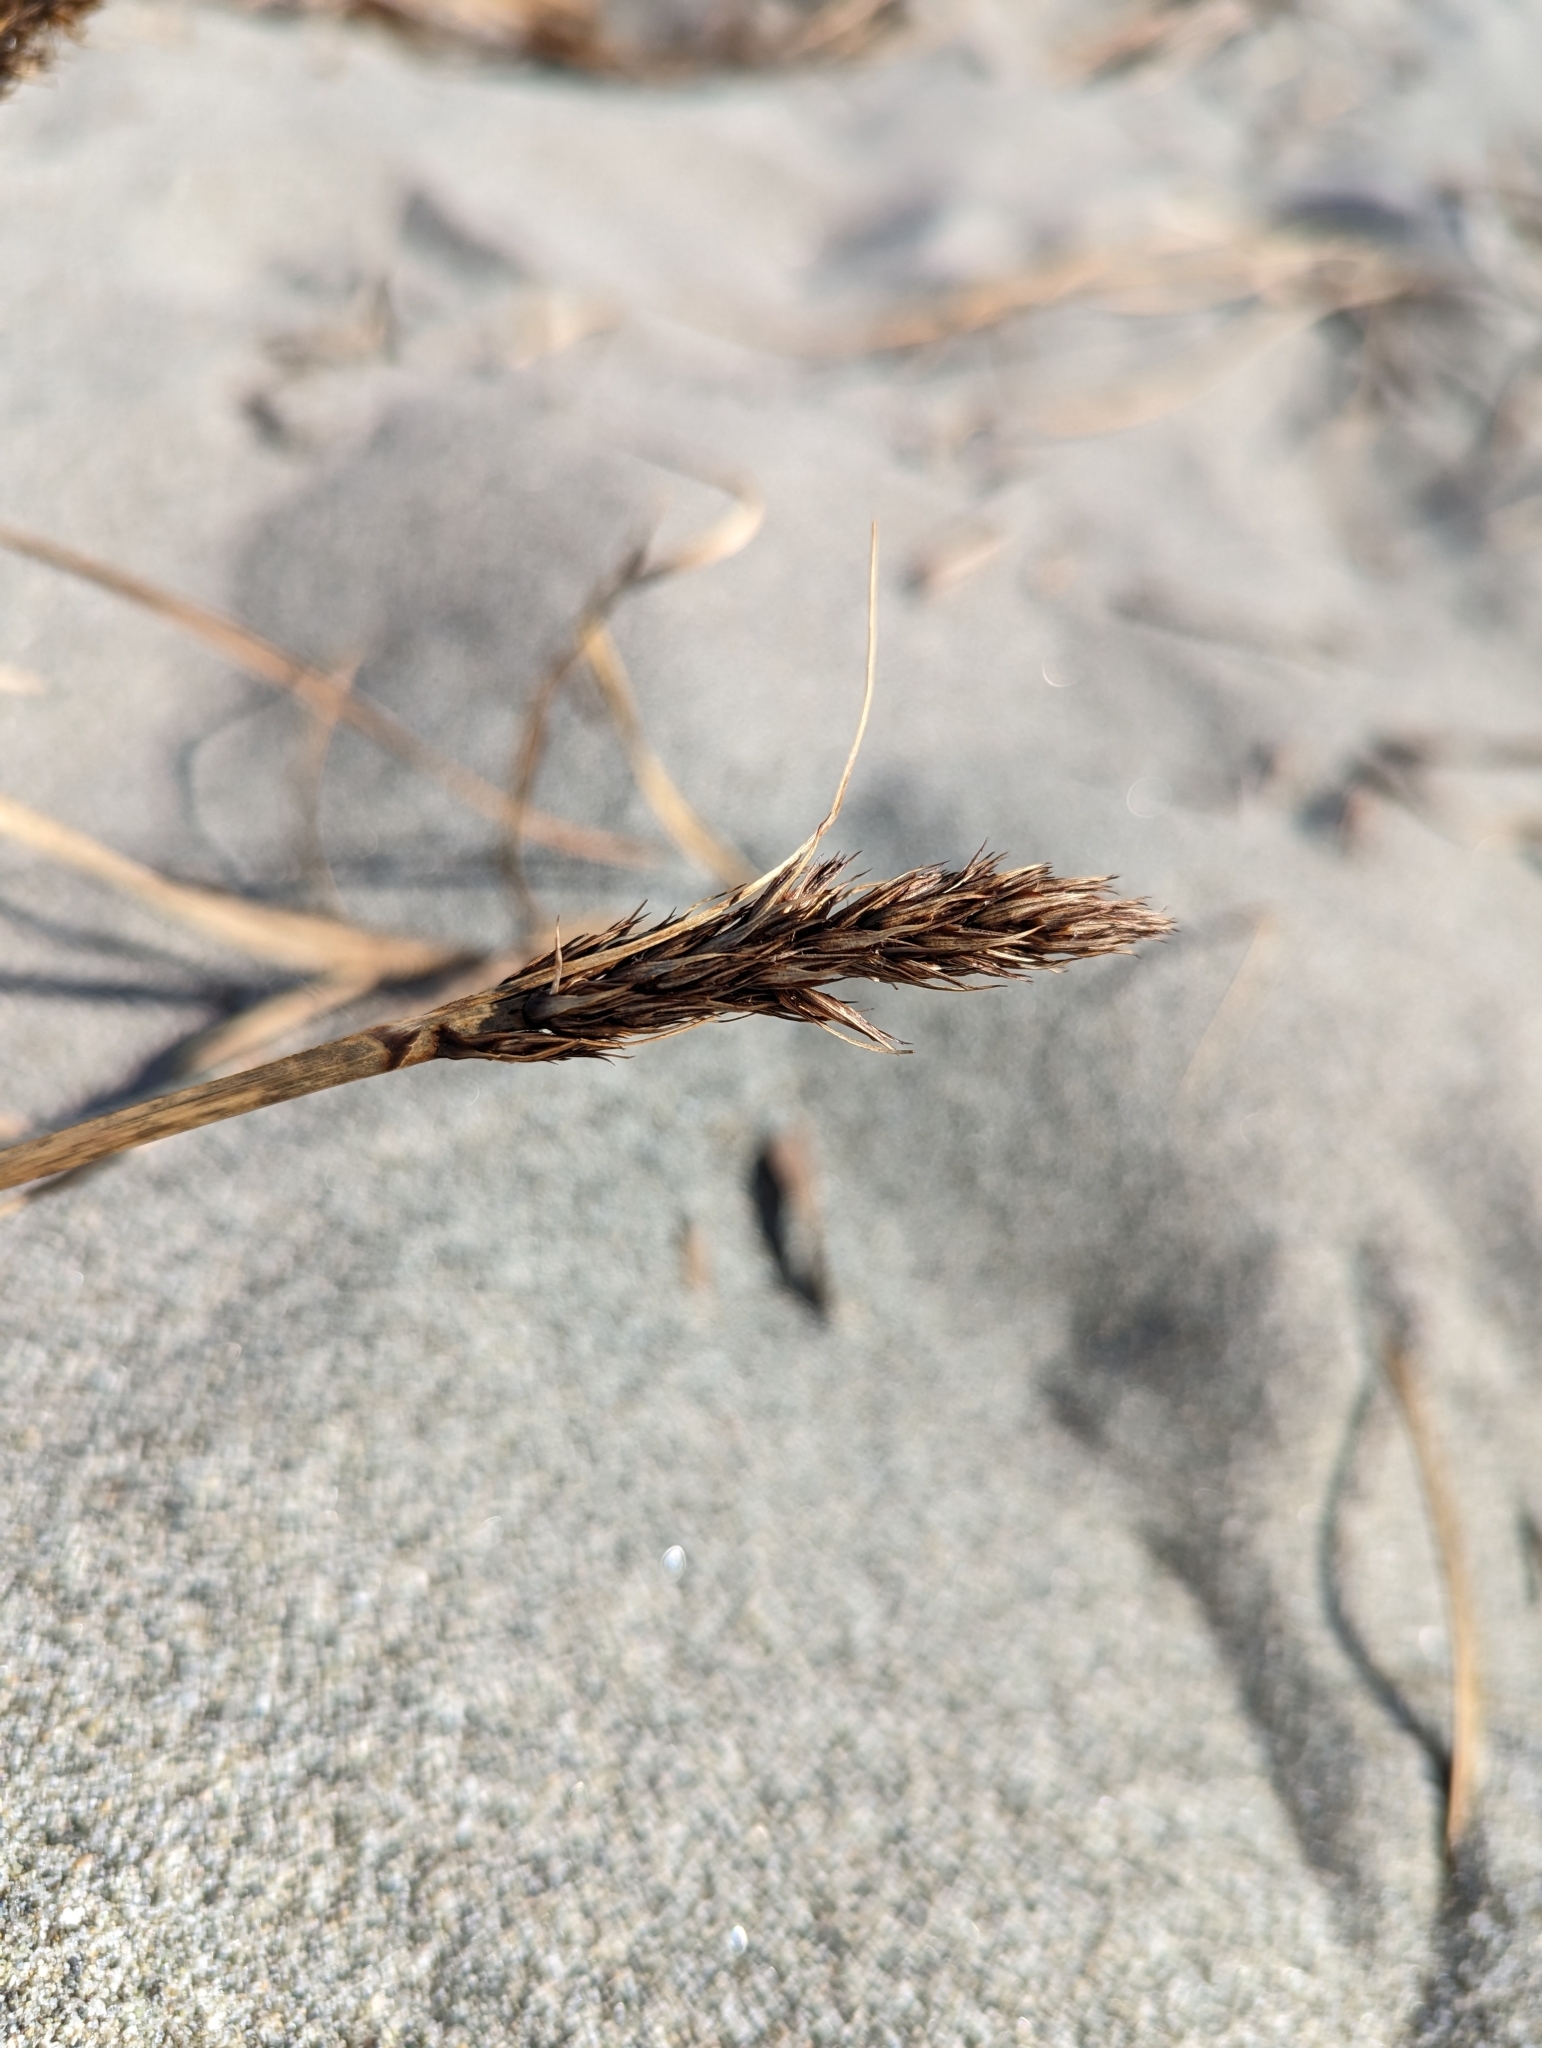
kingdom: Plantae
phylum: Tracheophyta
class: Liliopsida
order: Poales
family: Cyperaceae
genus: Carex
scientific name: Carex macrocephala
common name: Large-head sedge
